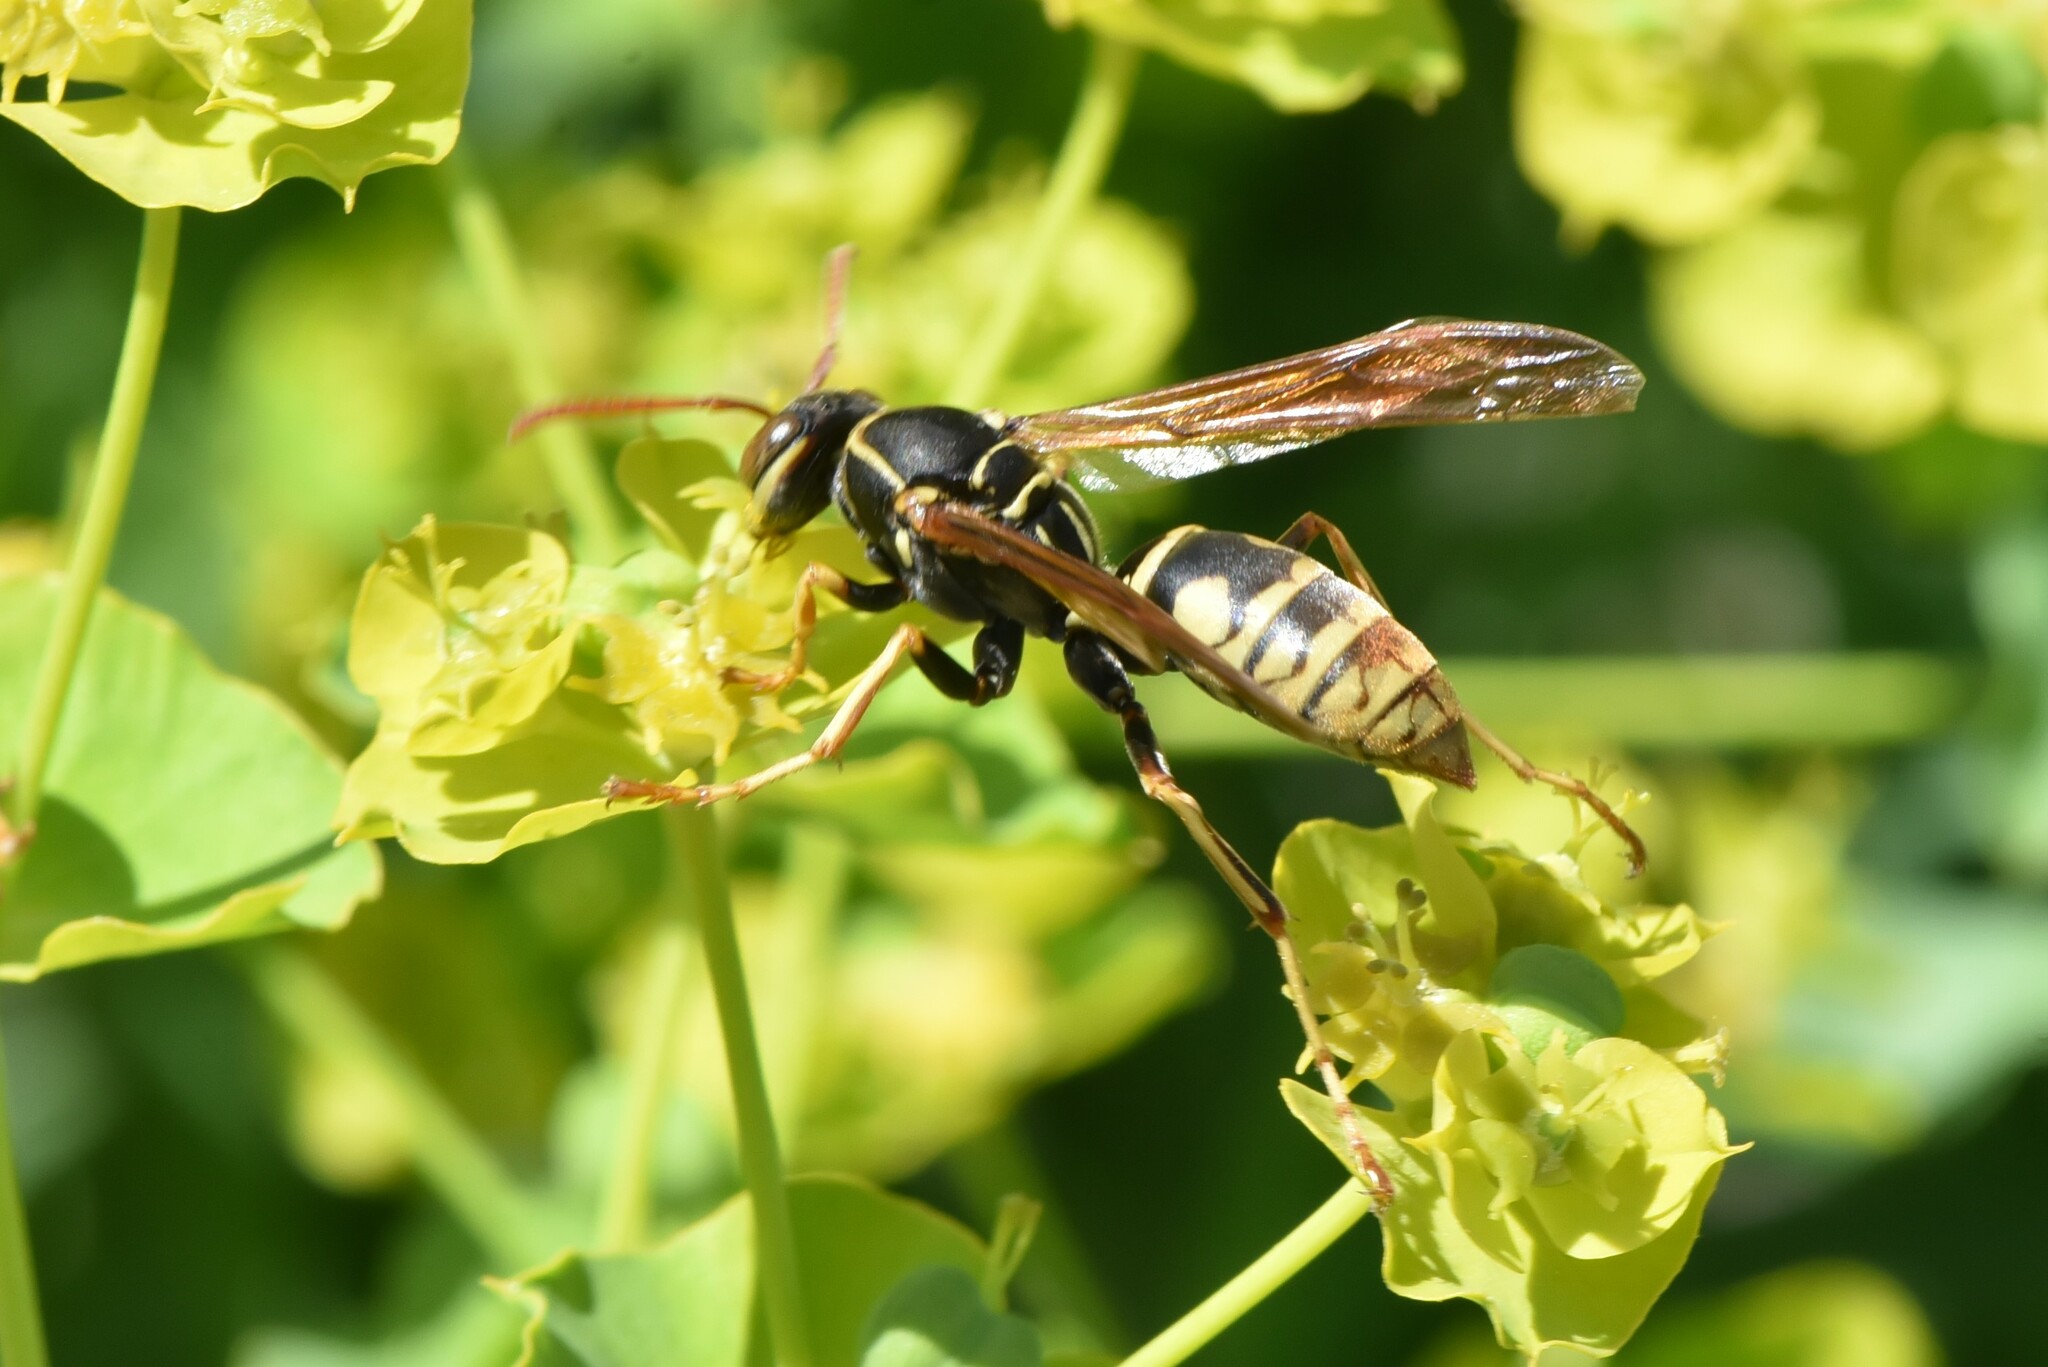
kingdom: Animalia
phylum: Arthropoda
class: Insecta
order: Hymenoptera
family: Eumenidae
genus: Polistes
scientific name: Polistes aurifer
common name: Paper wasp
